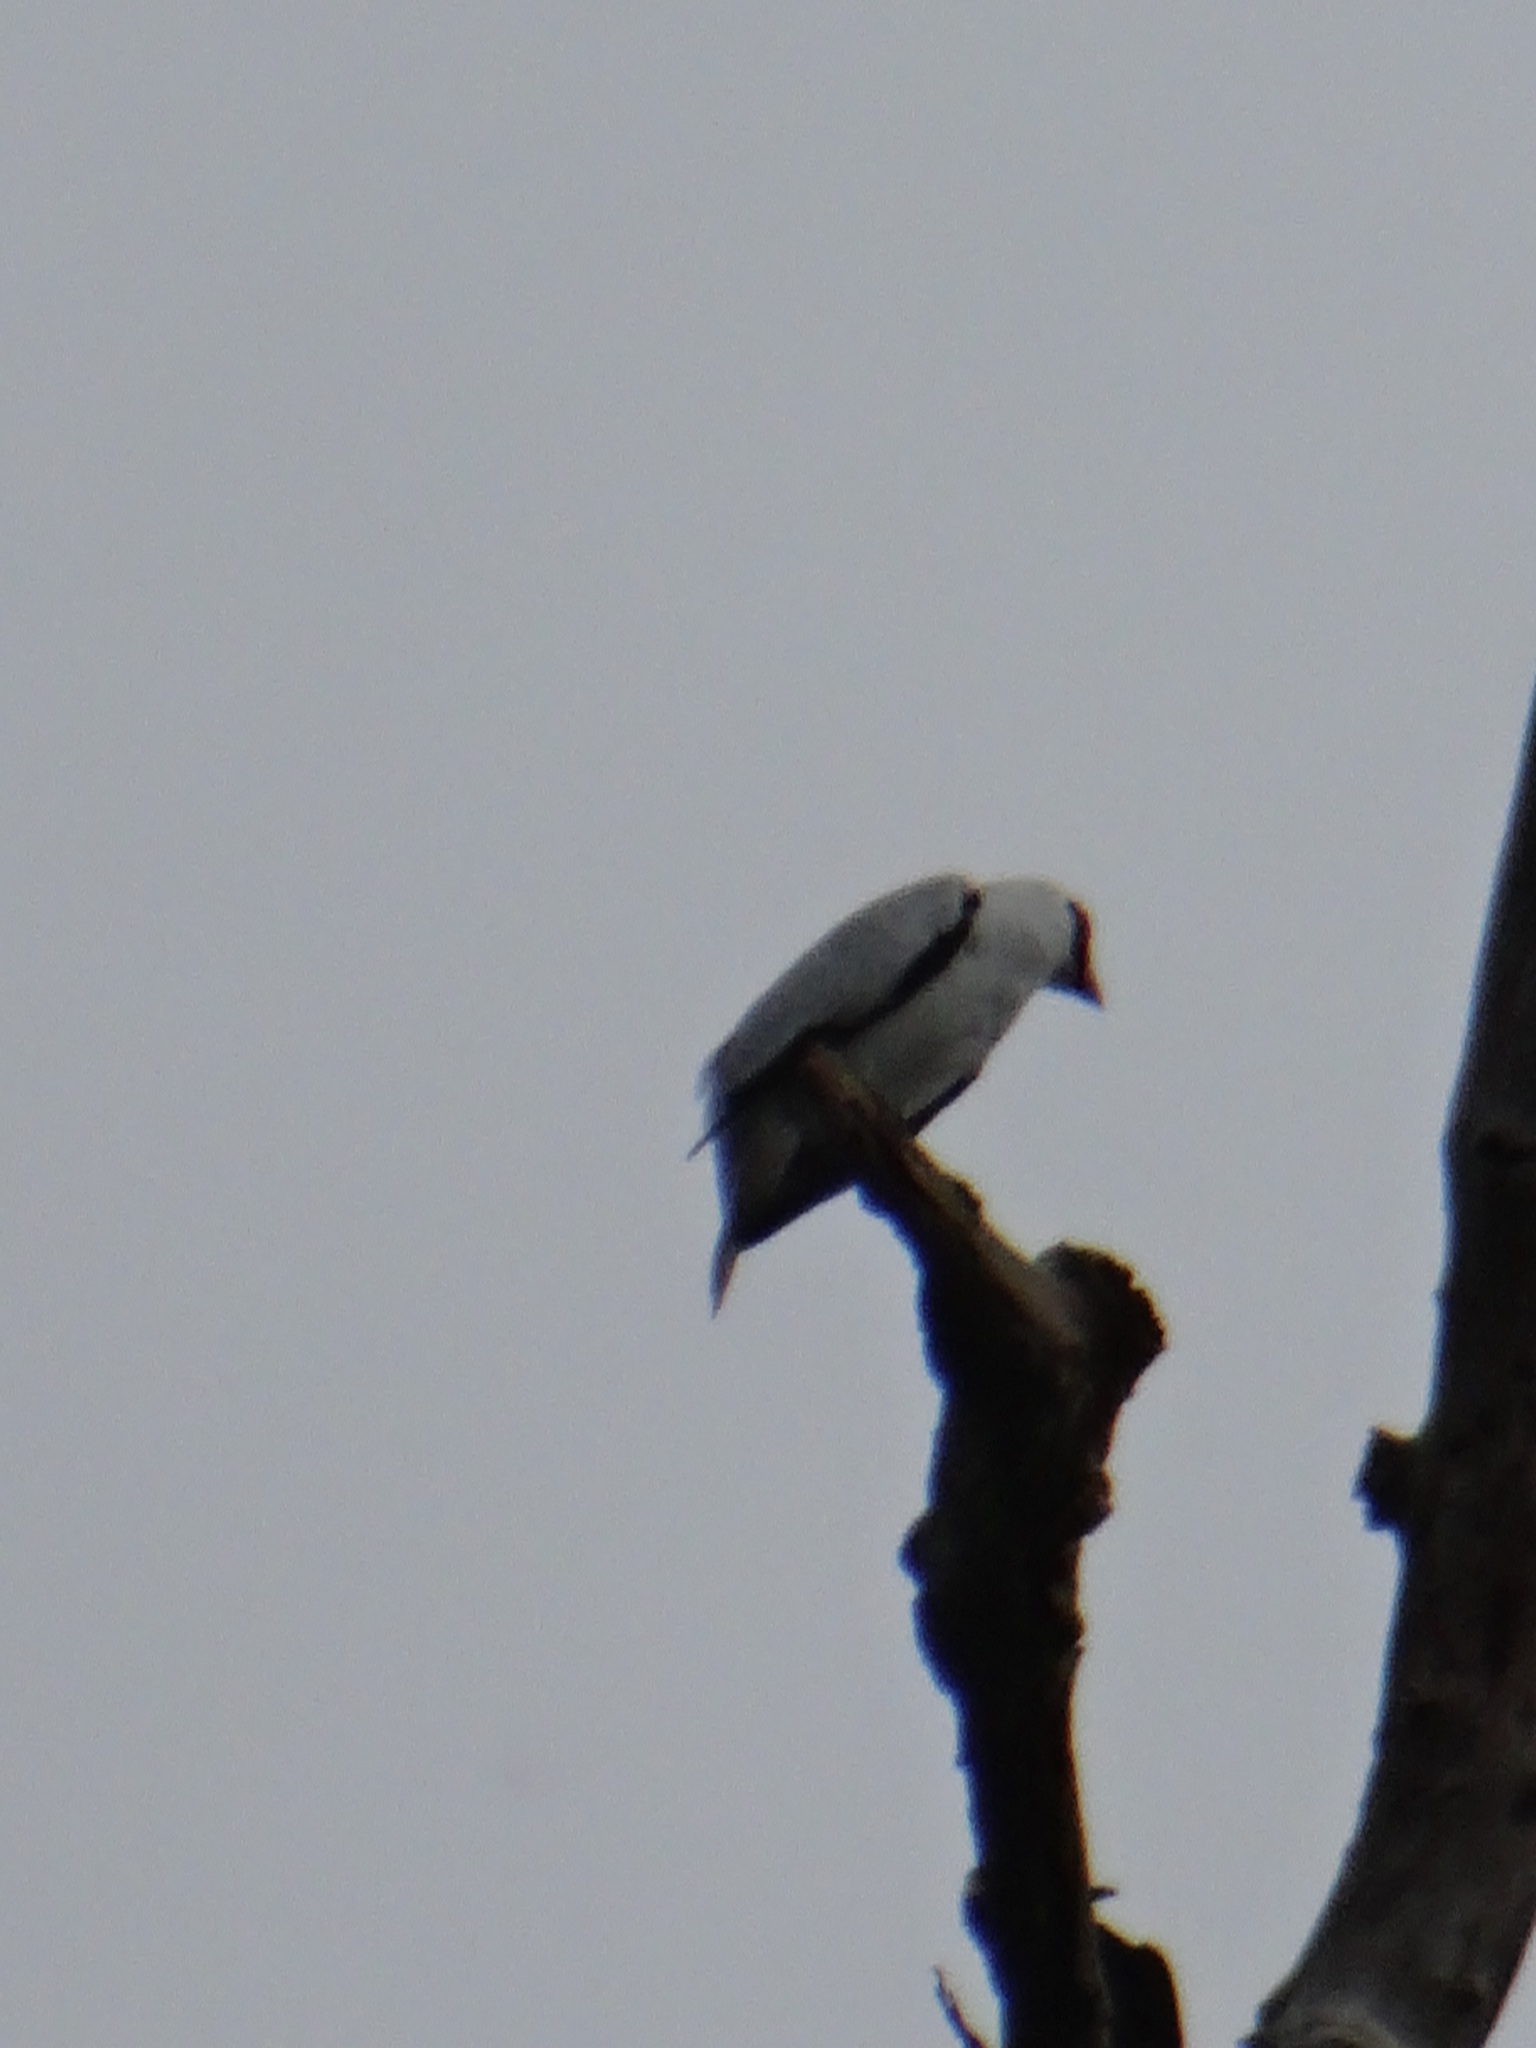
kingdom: Animalia
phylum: Chordata
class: Aves
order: Passeriformes
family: Cotingidae
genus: Tityra
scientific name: Tityra semifasciata
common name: Masked tityra
